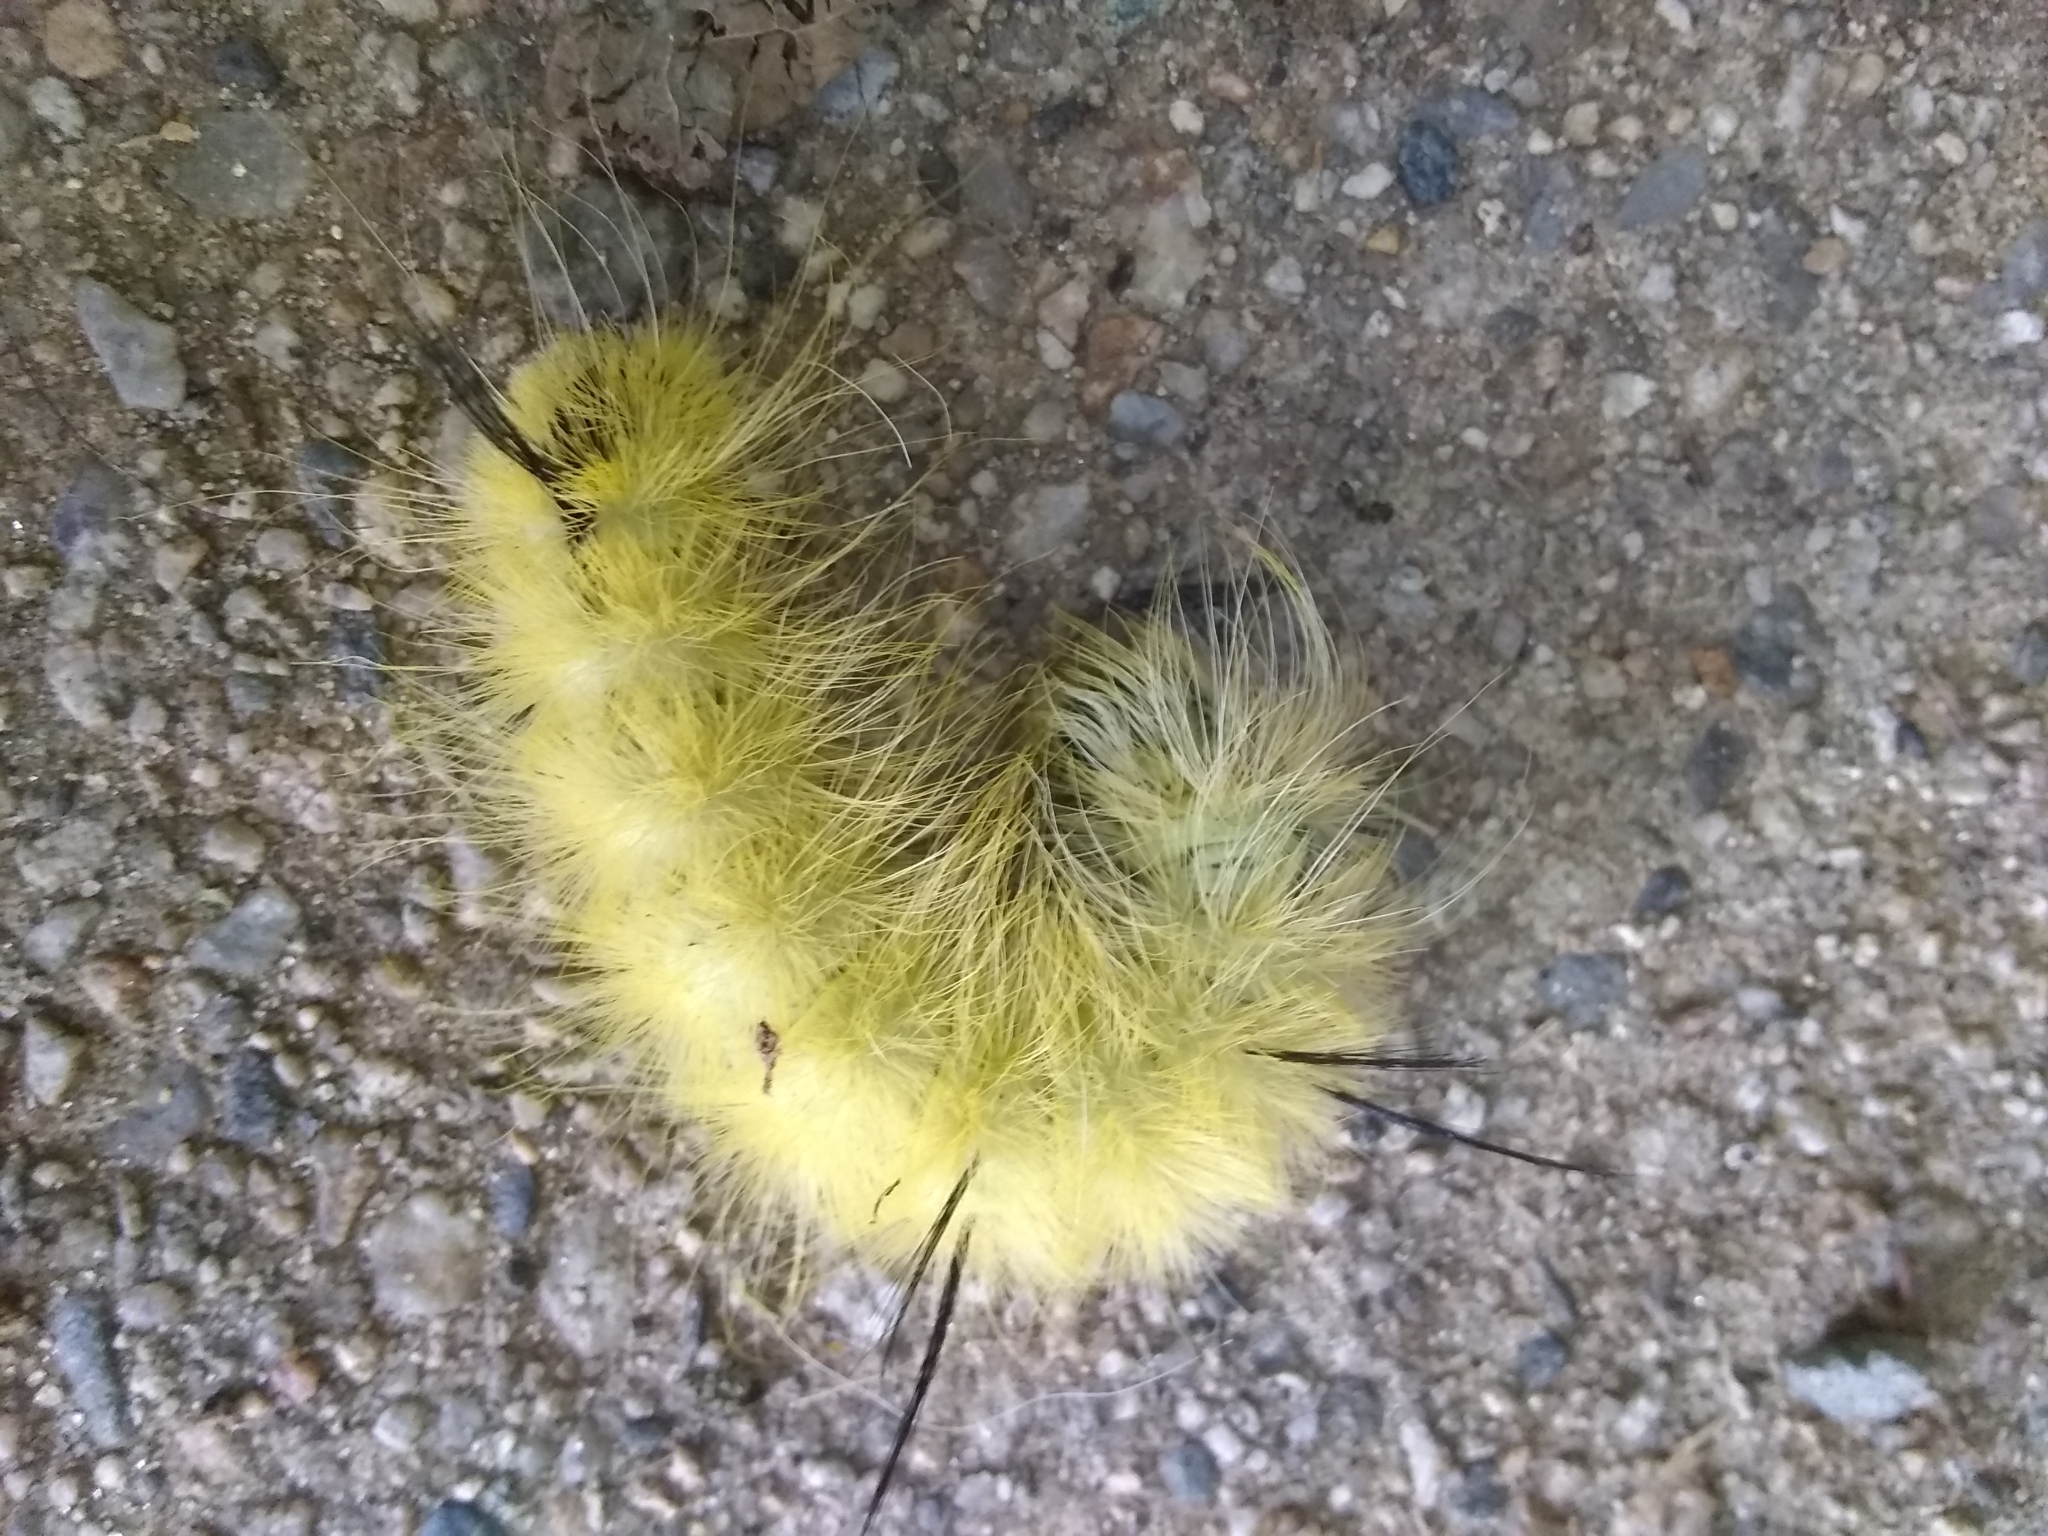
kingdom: Animalia
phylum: Arthropoda
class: Insecta
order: Lepidoptera
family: Noctuidae
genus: Acronicta
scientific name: Acronicta americana
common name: American dagger
